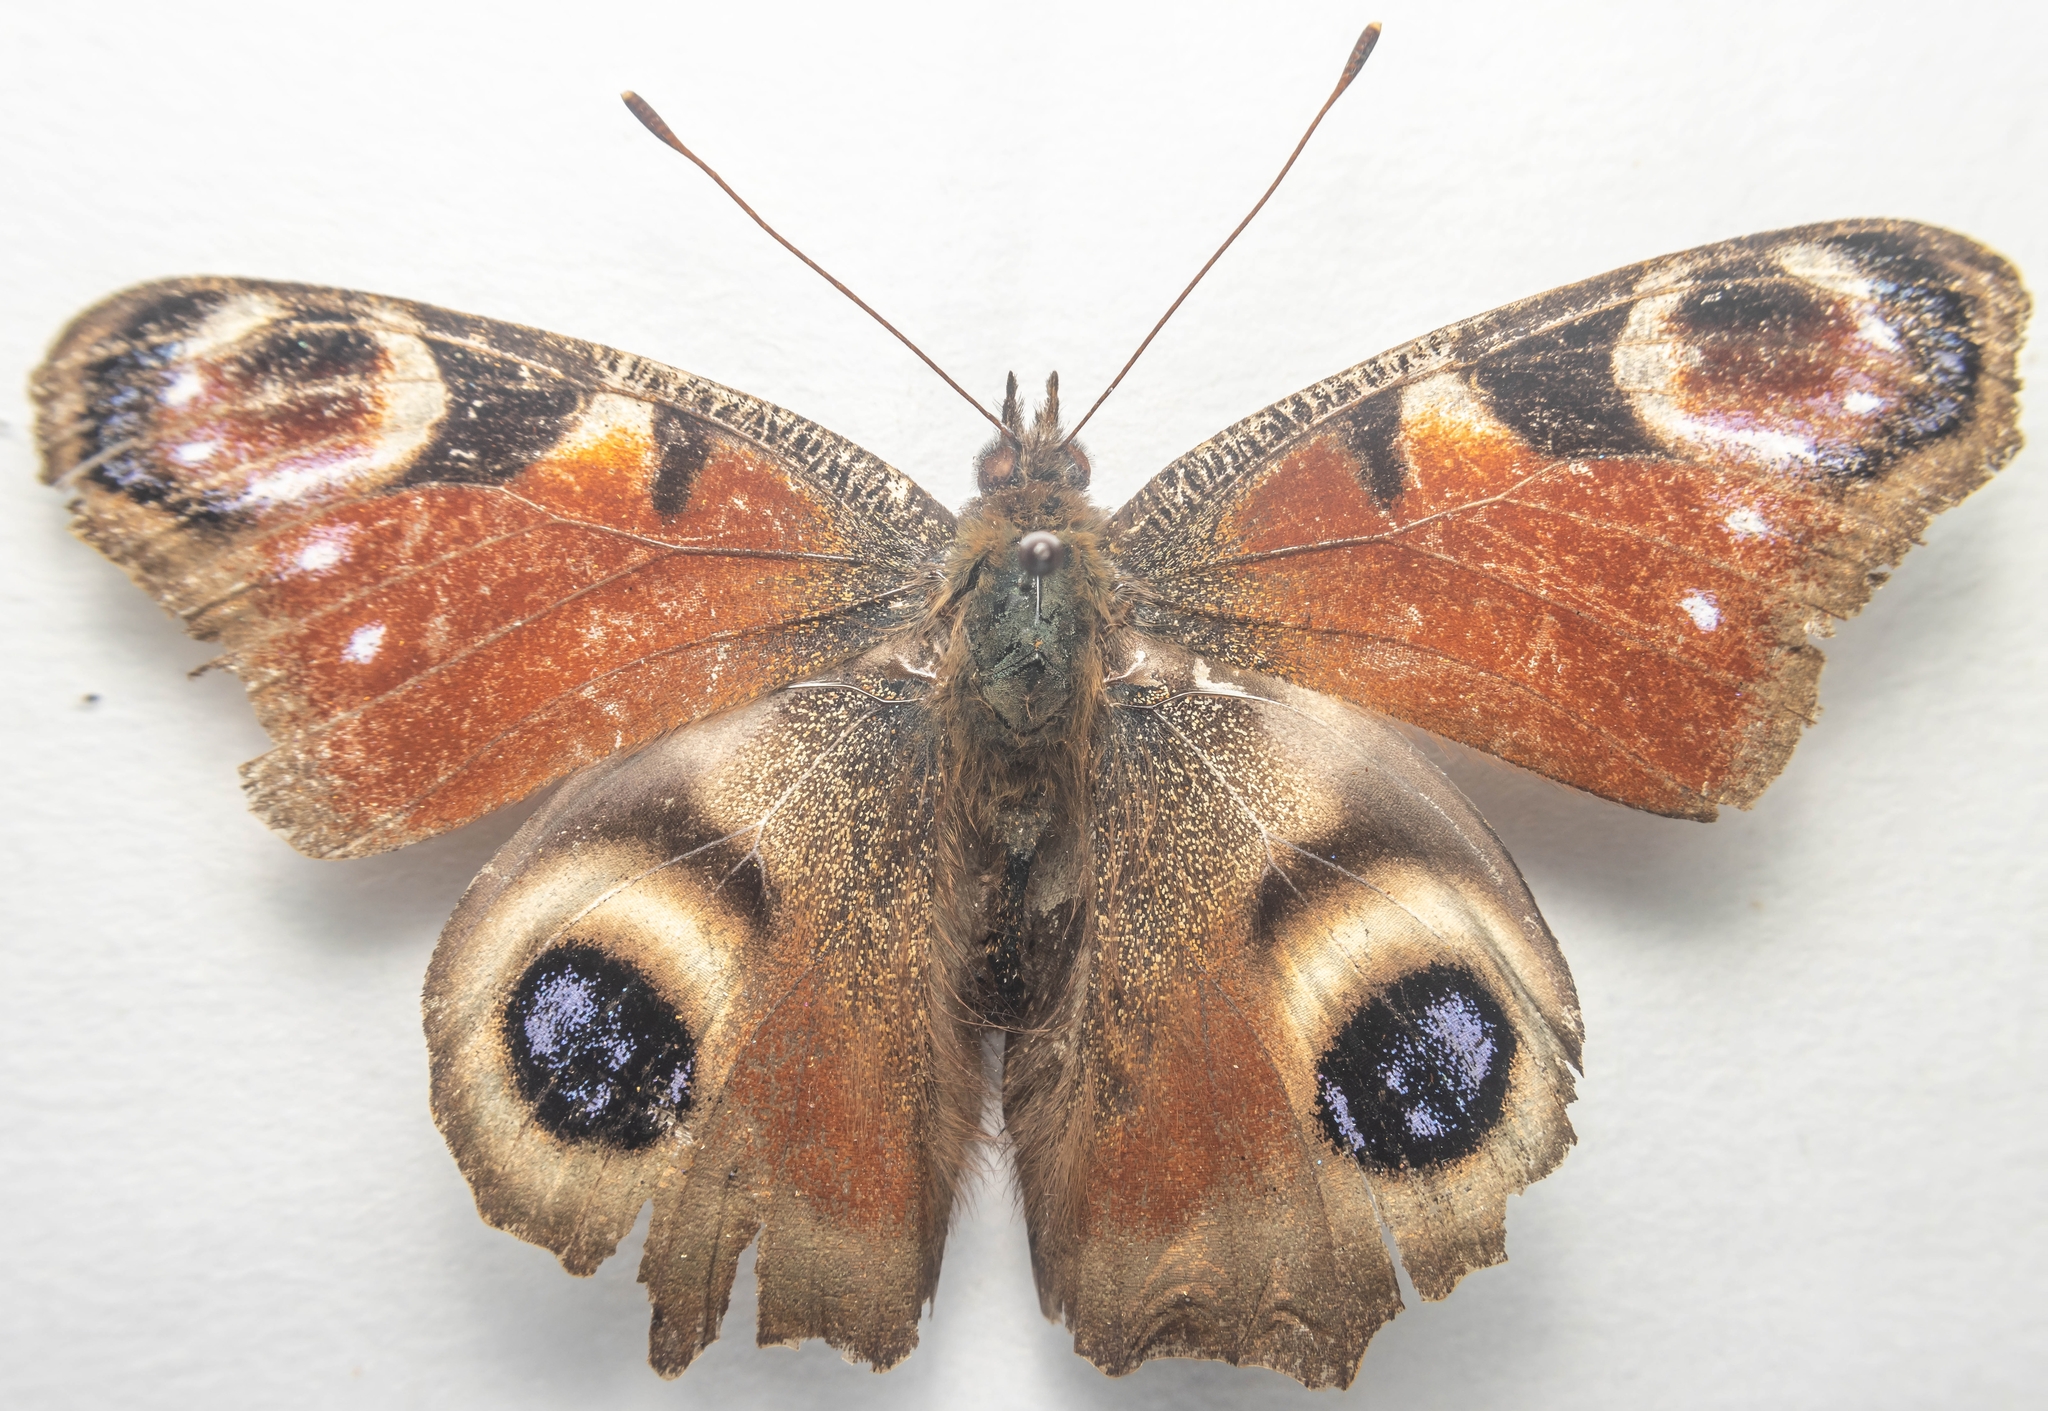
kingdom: Animalia
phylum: Arthropoda
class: Insecta
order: Lepidoptera
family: Nymphalidae
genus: Aglais
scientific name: Aglais io
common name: Peacock
